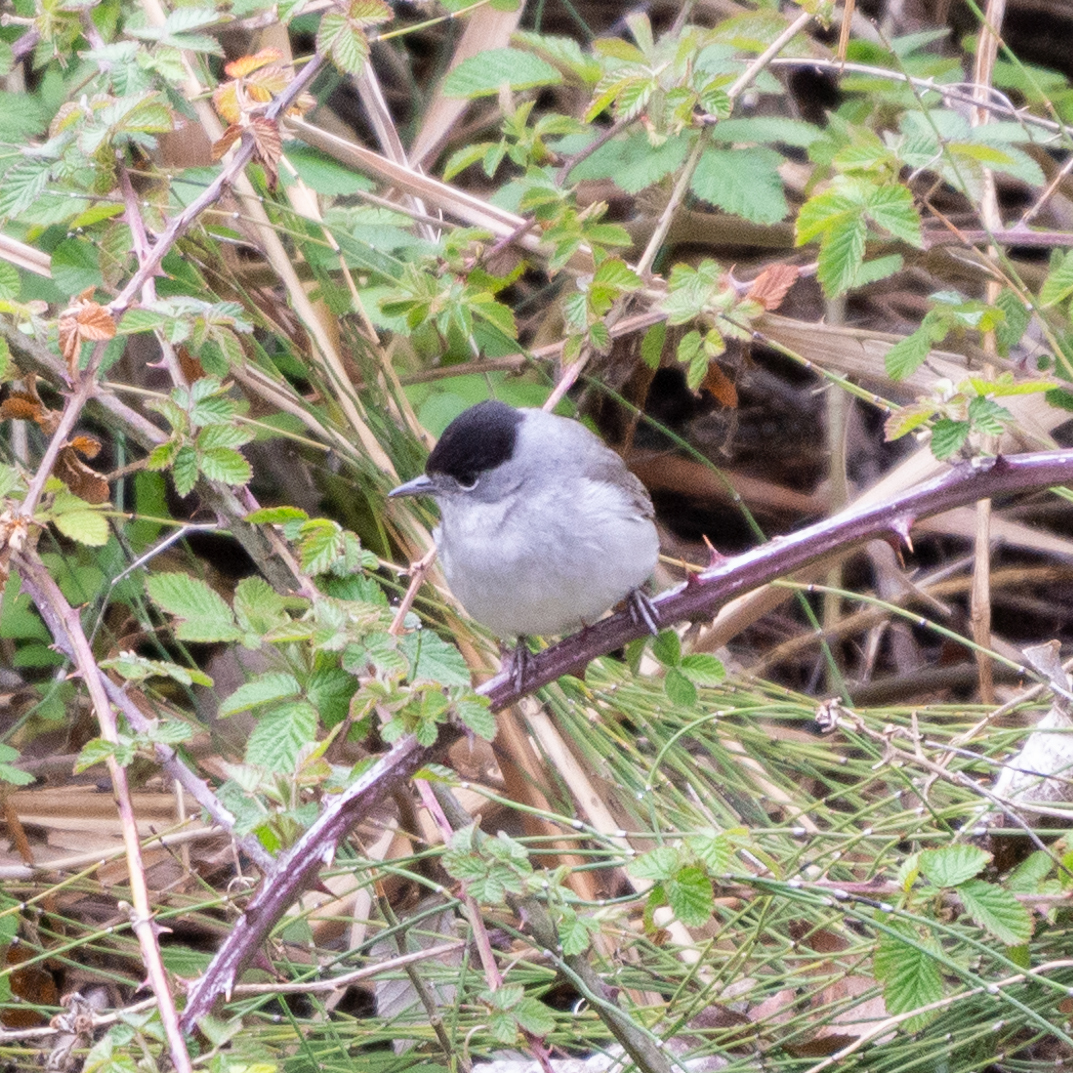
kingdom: Animalia
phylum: Chordata
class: Aves
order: Passeriformes
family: Sylviidae
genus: Sylvia
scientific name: Sylvia atricapilla
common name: Eurasian blackcap
